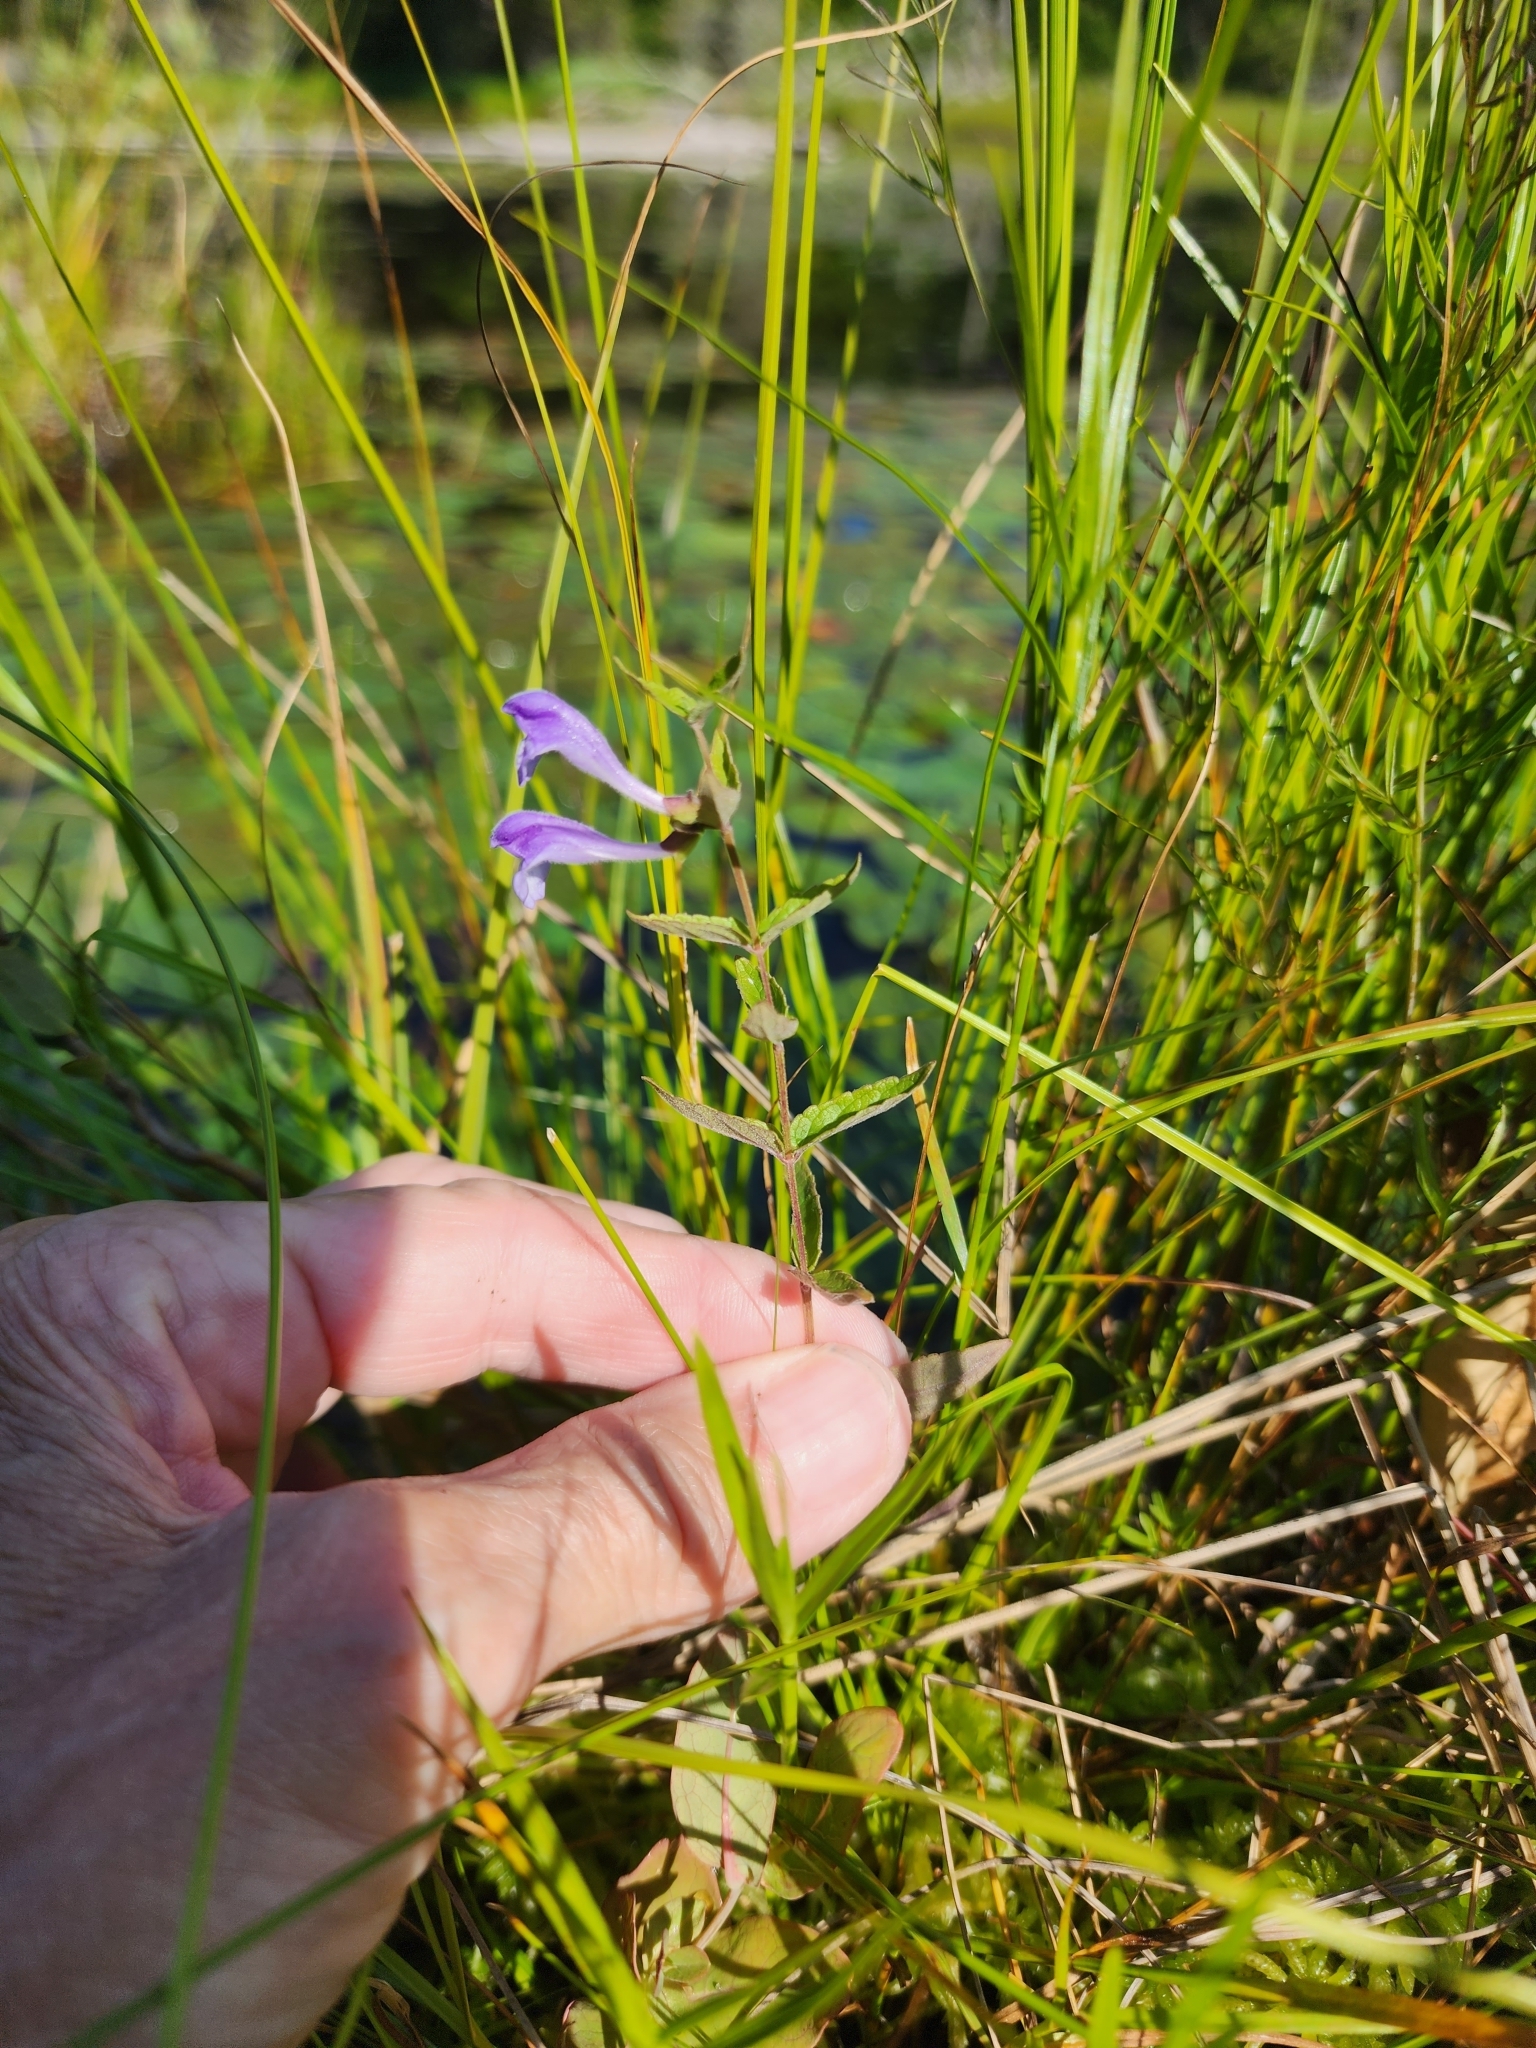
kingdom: Plantae
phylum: Tracheophyta
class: Magnoliopsida
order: Lamiales
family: Lamiaceae
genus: Scutellaria
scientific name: Scutellaria galericulata
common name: Skullcap
